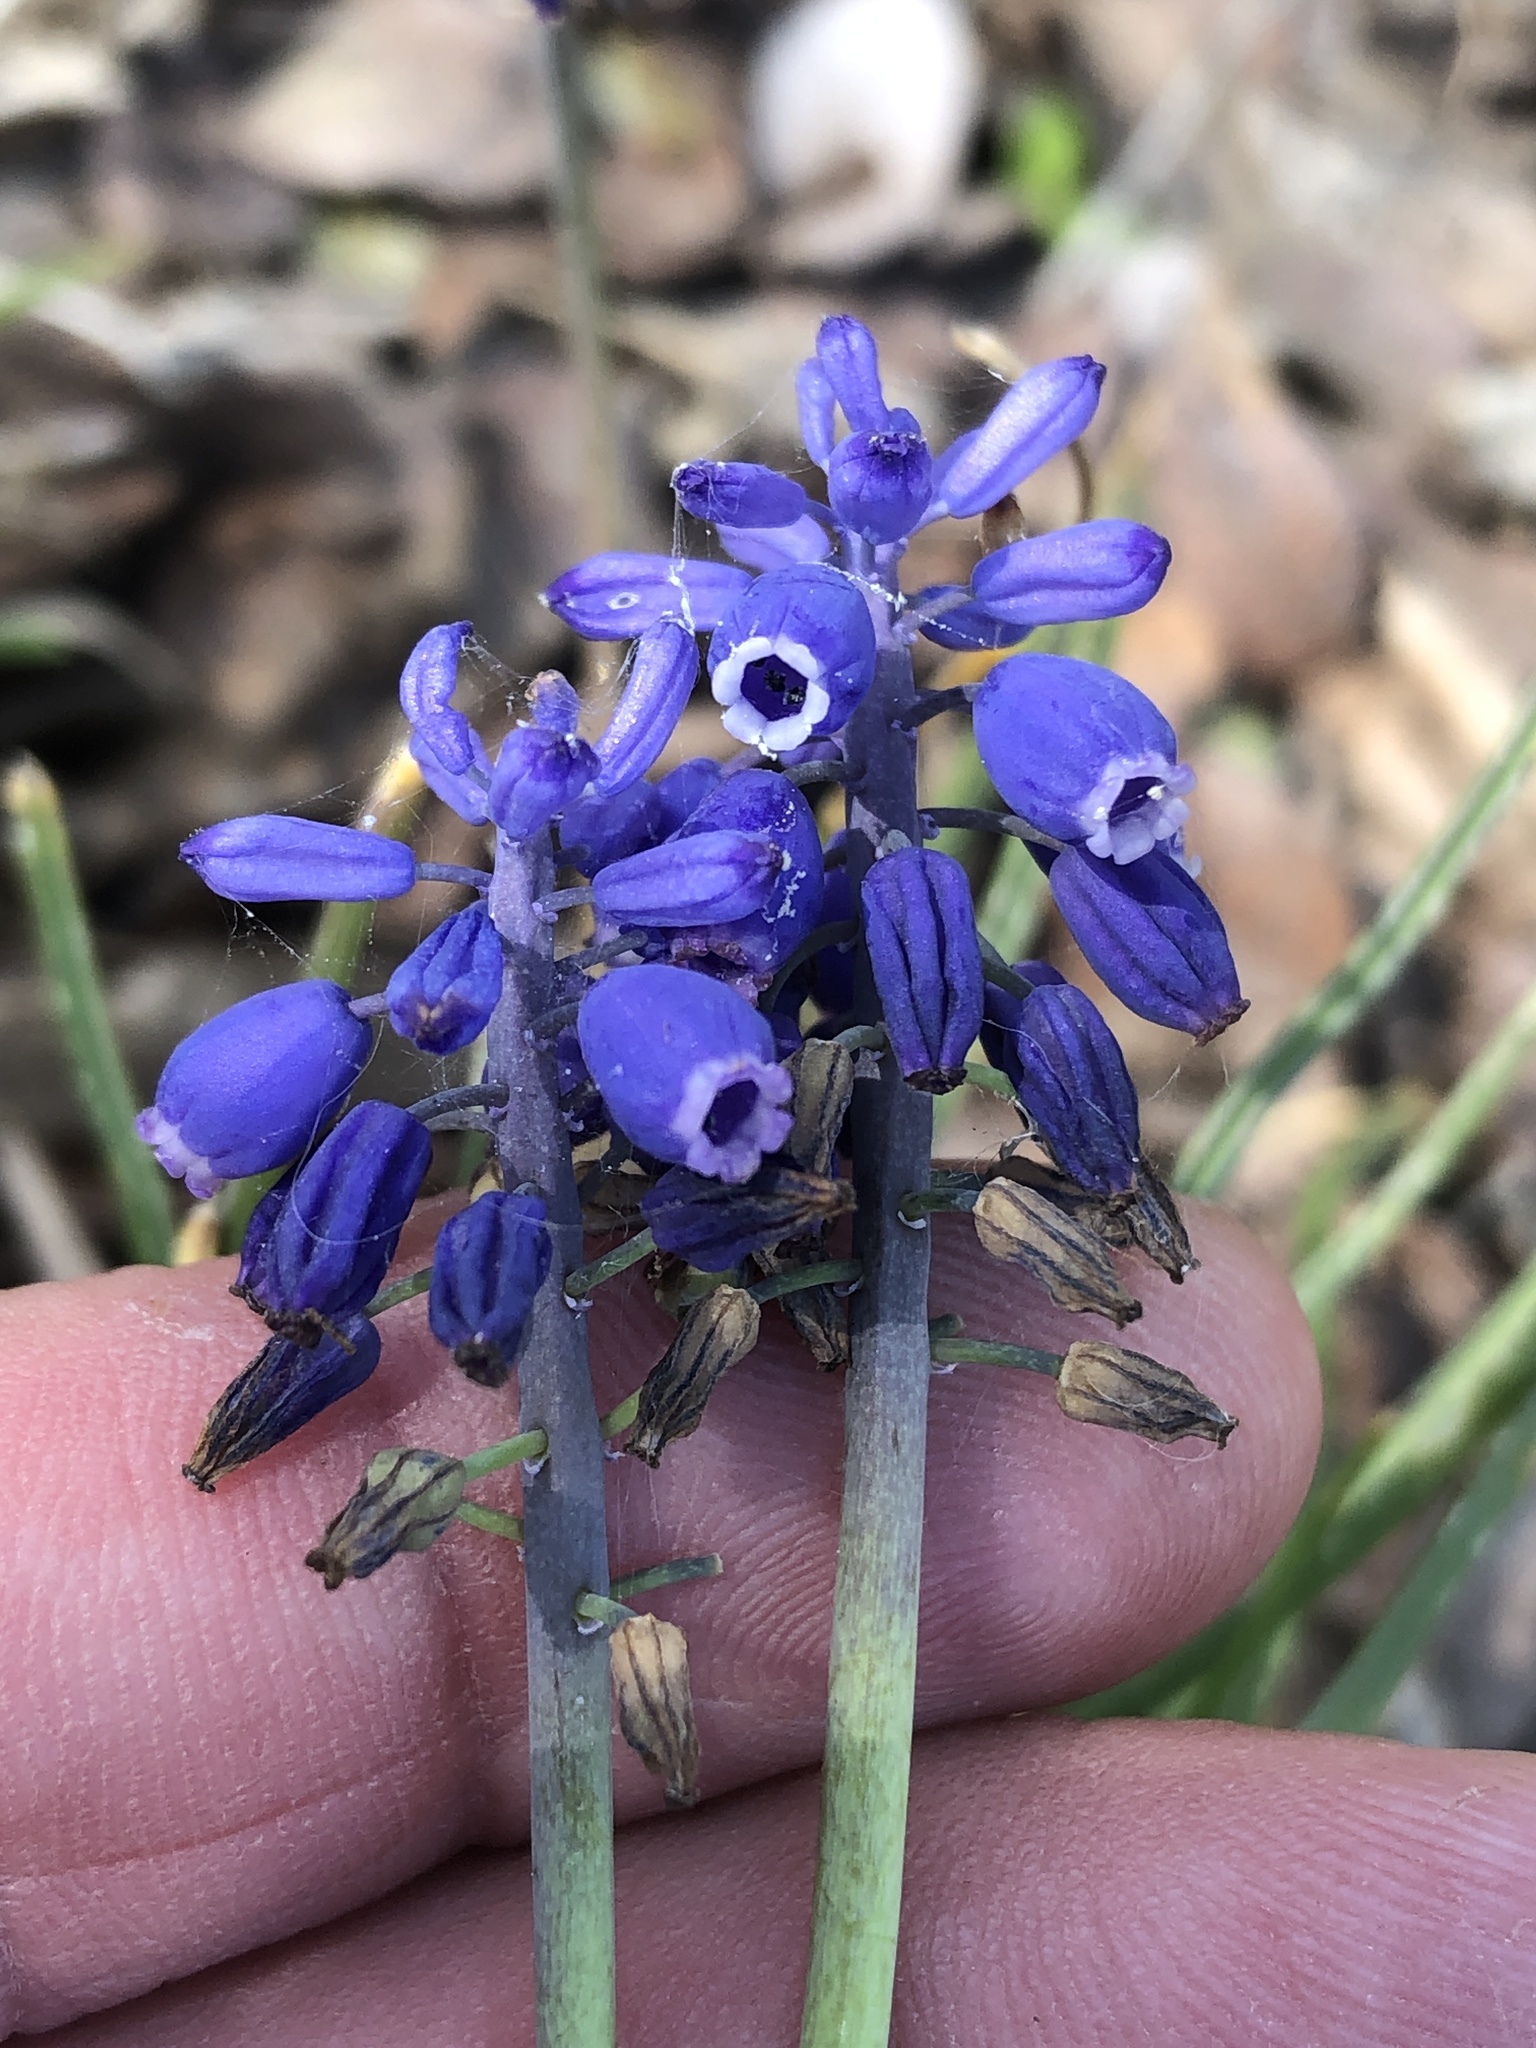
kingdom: Plantae
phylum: Tracheophyta
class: Liliopsida
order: Asparagales
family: Asparagaceae
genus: Muscari
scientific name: Muscari neglectum
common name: Grape-hyacinth
